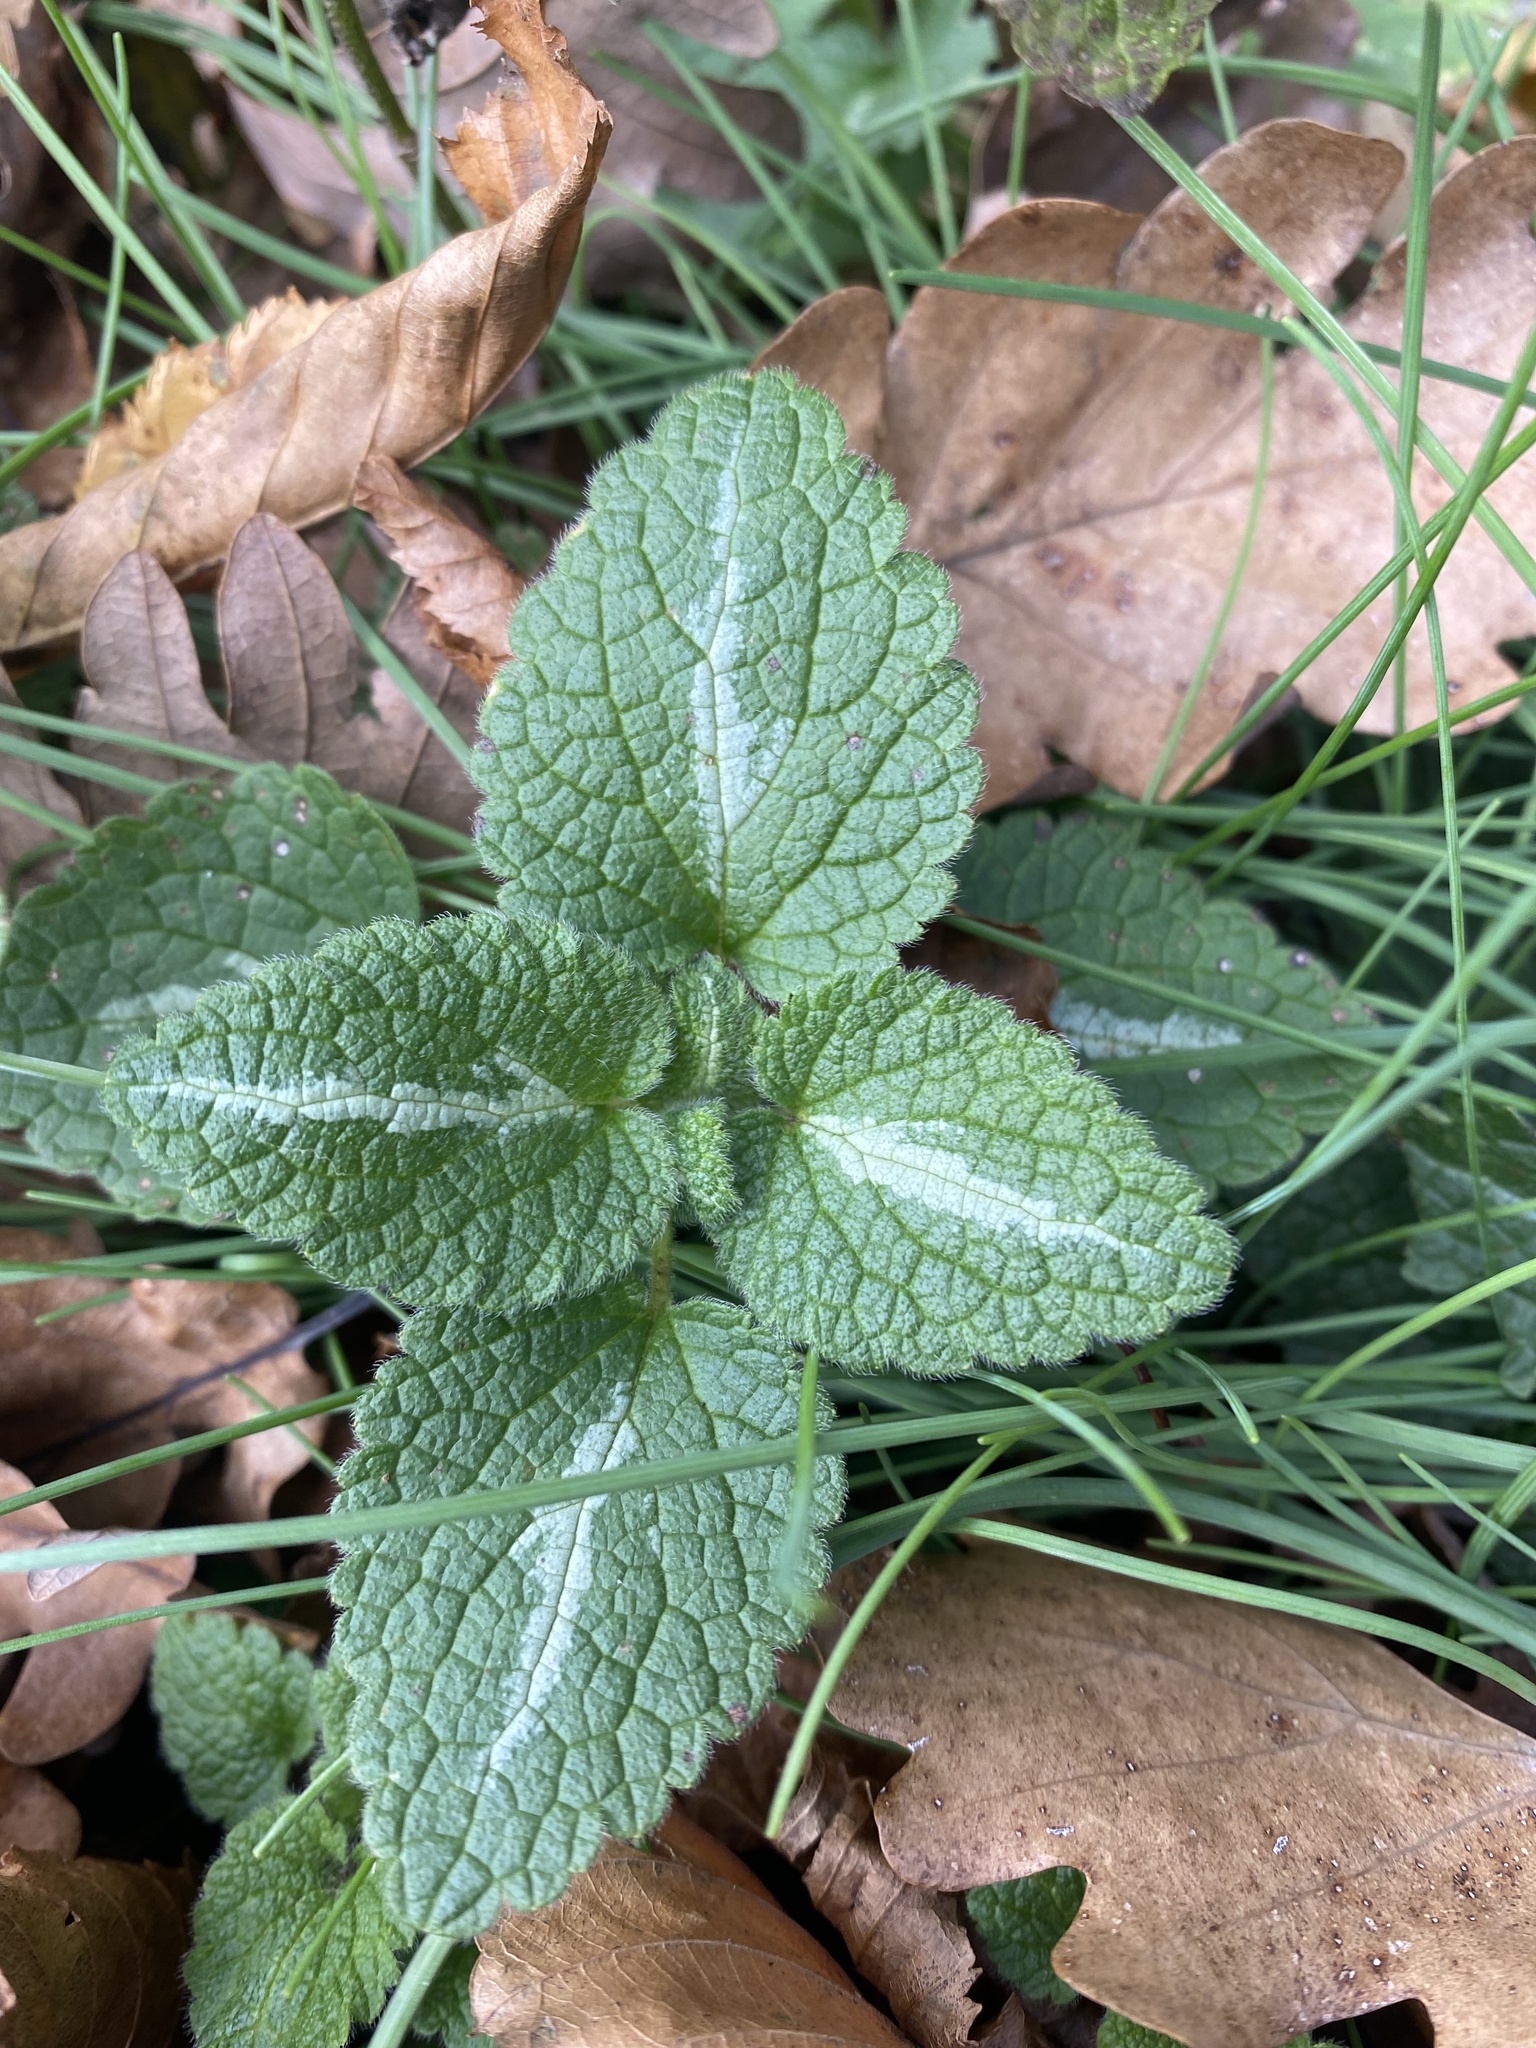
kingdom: Plantae
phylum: Tracheophyta
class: Magnoliopsida
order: Lamiales
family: Lamiaceae
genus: Lamium
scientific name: Lamium maculatum
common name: Spotted dead-nettle
